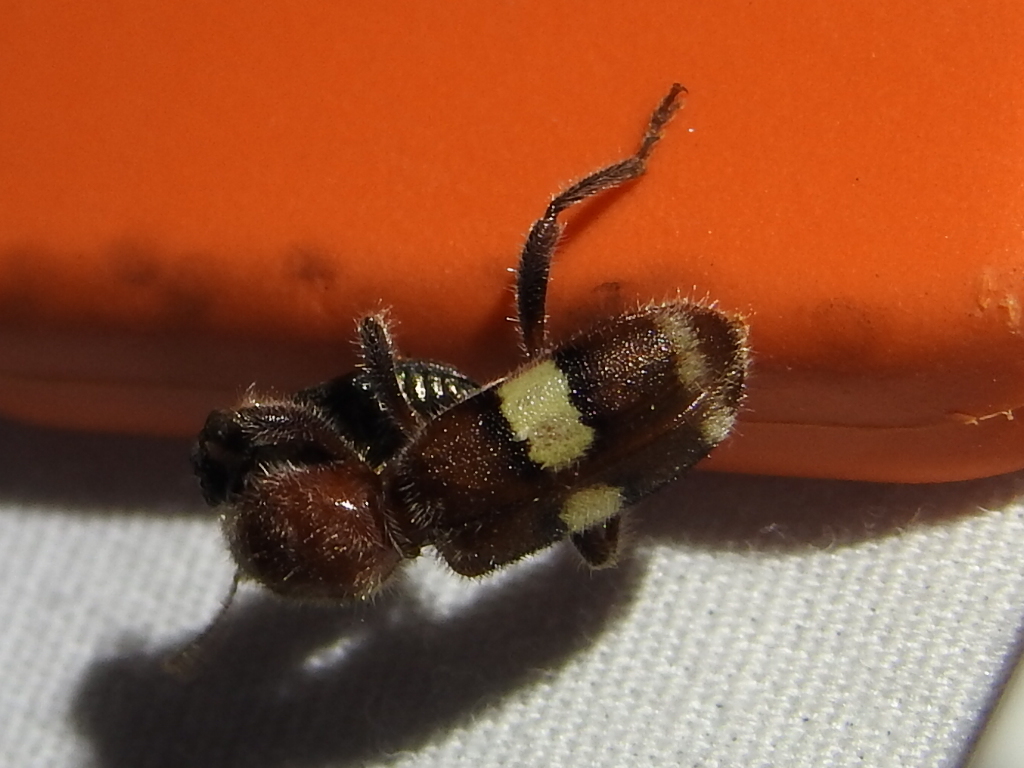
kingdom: Animalia
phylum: Arthropoda
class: Insecta
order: Coleoptera
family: Cleridae
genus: Enoclerus
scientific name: Enoclerus quadrisignatus
